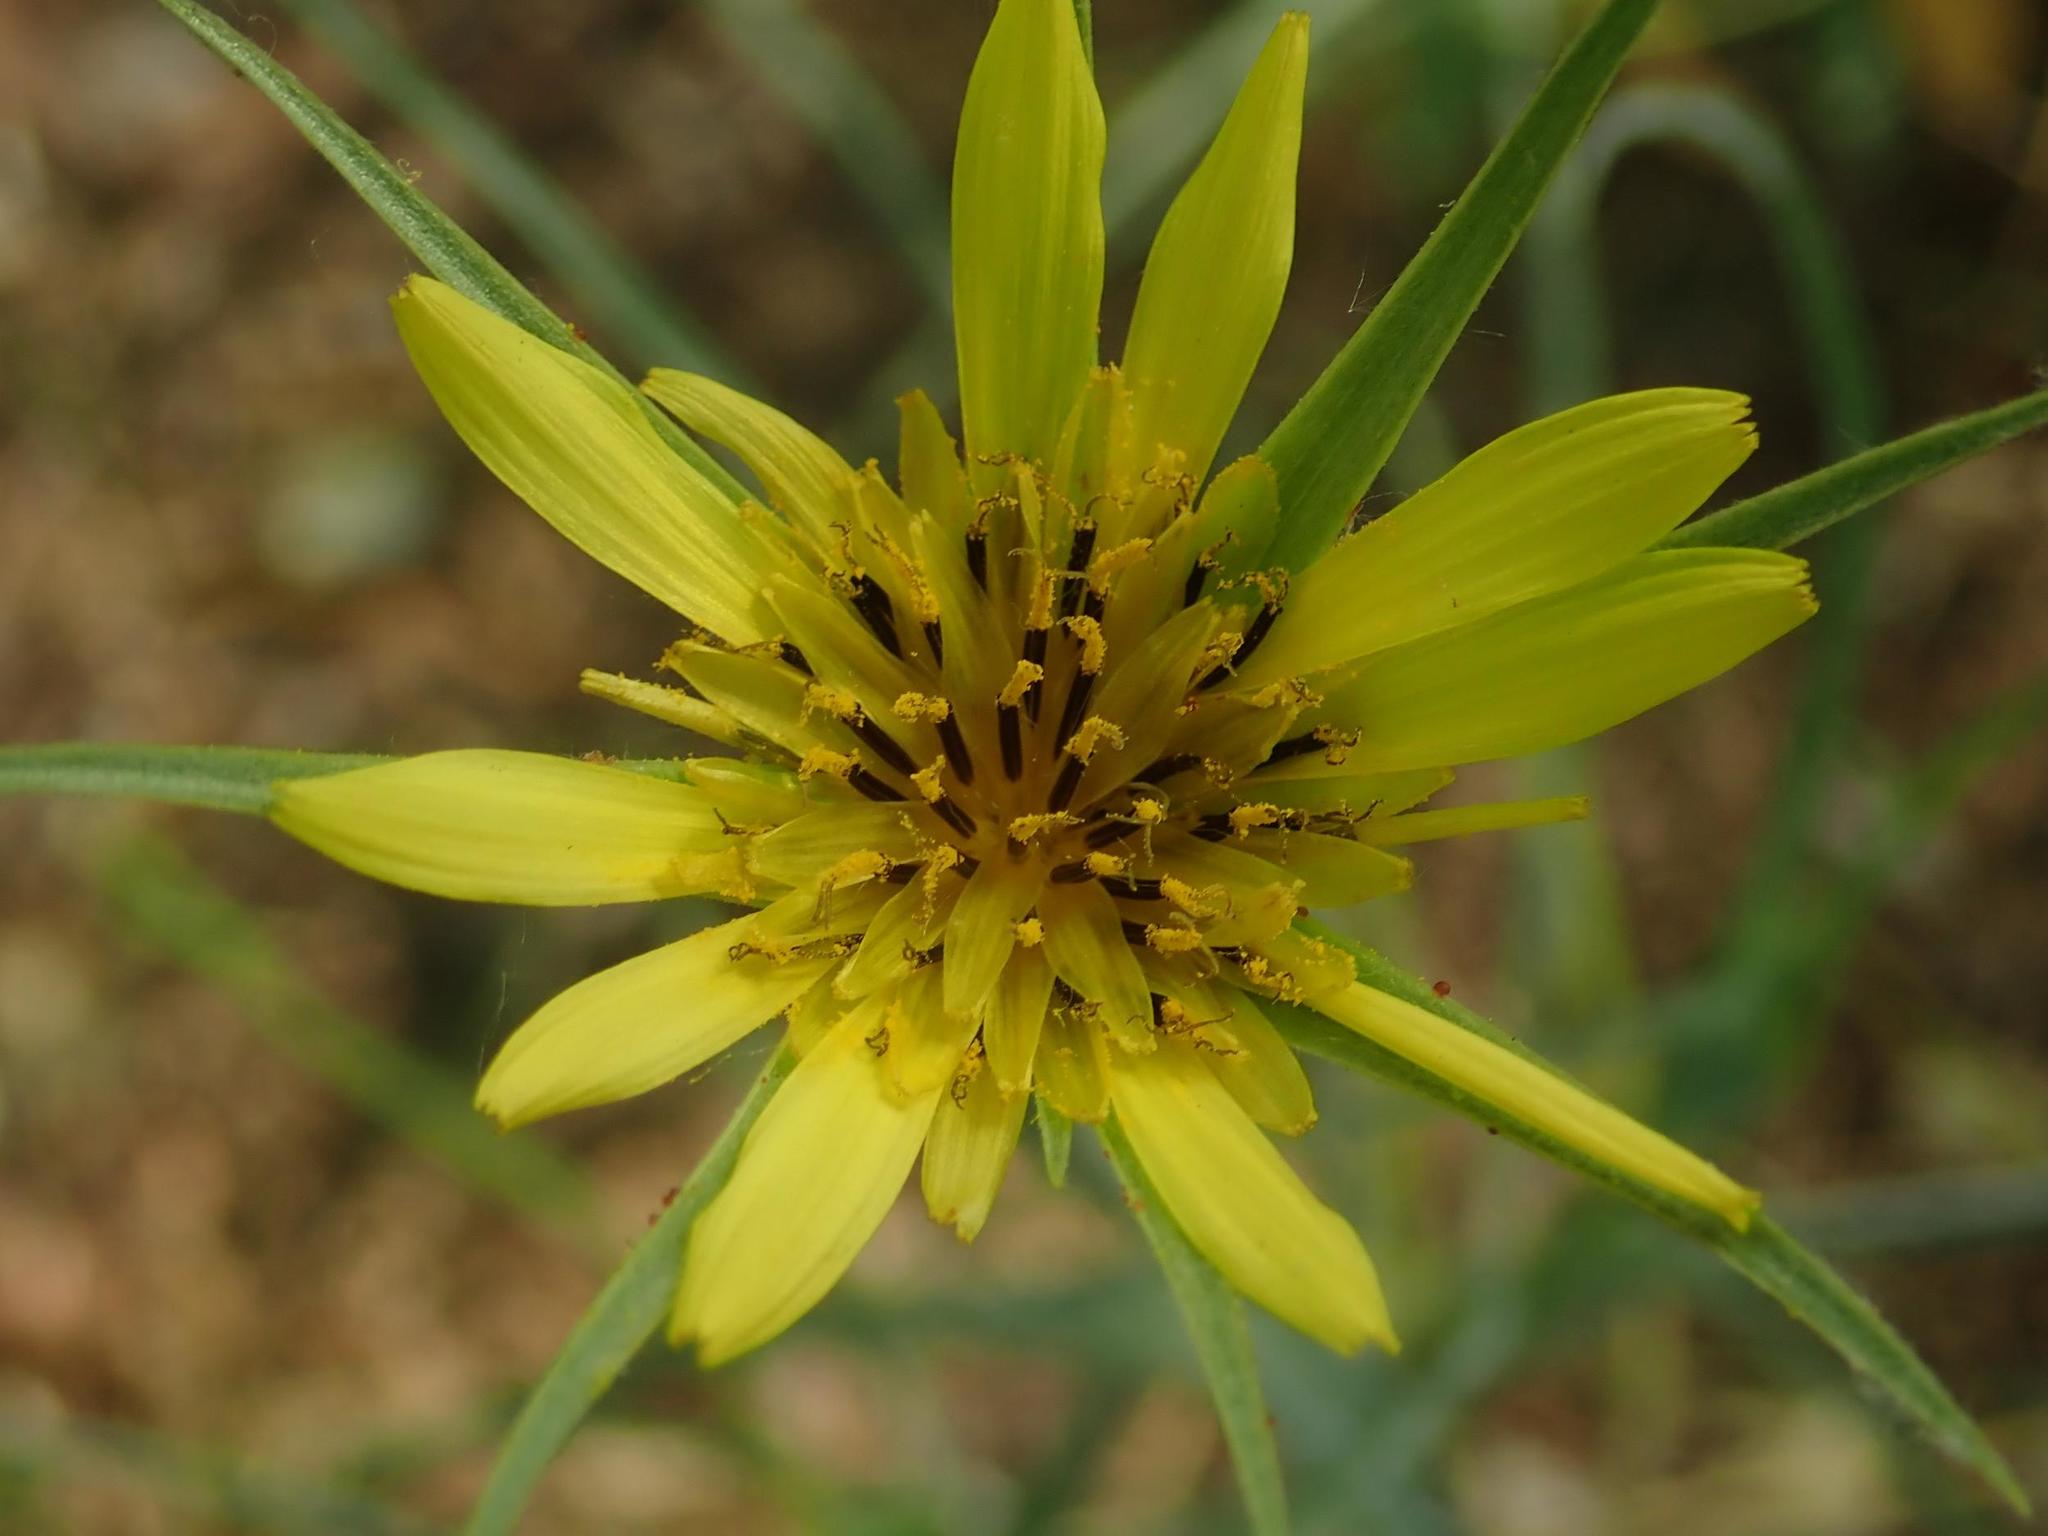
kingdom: Plantae
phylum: Tracheophyta
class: Magnoliopsida
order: Asterales
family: Asteraceae
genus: Tragopogon
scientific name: Tragopogon dubius
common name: Yellow salsify
